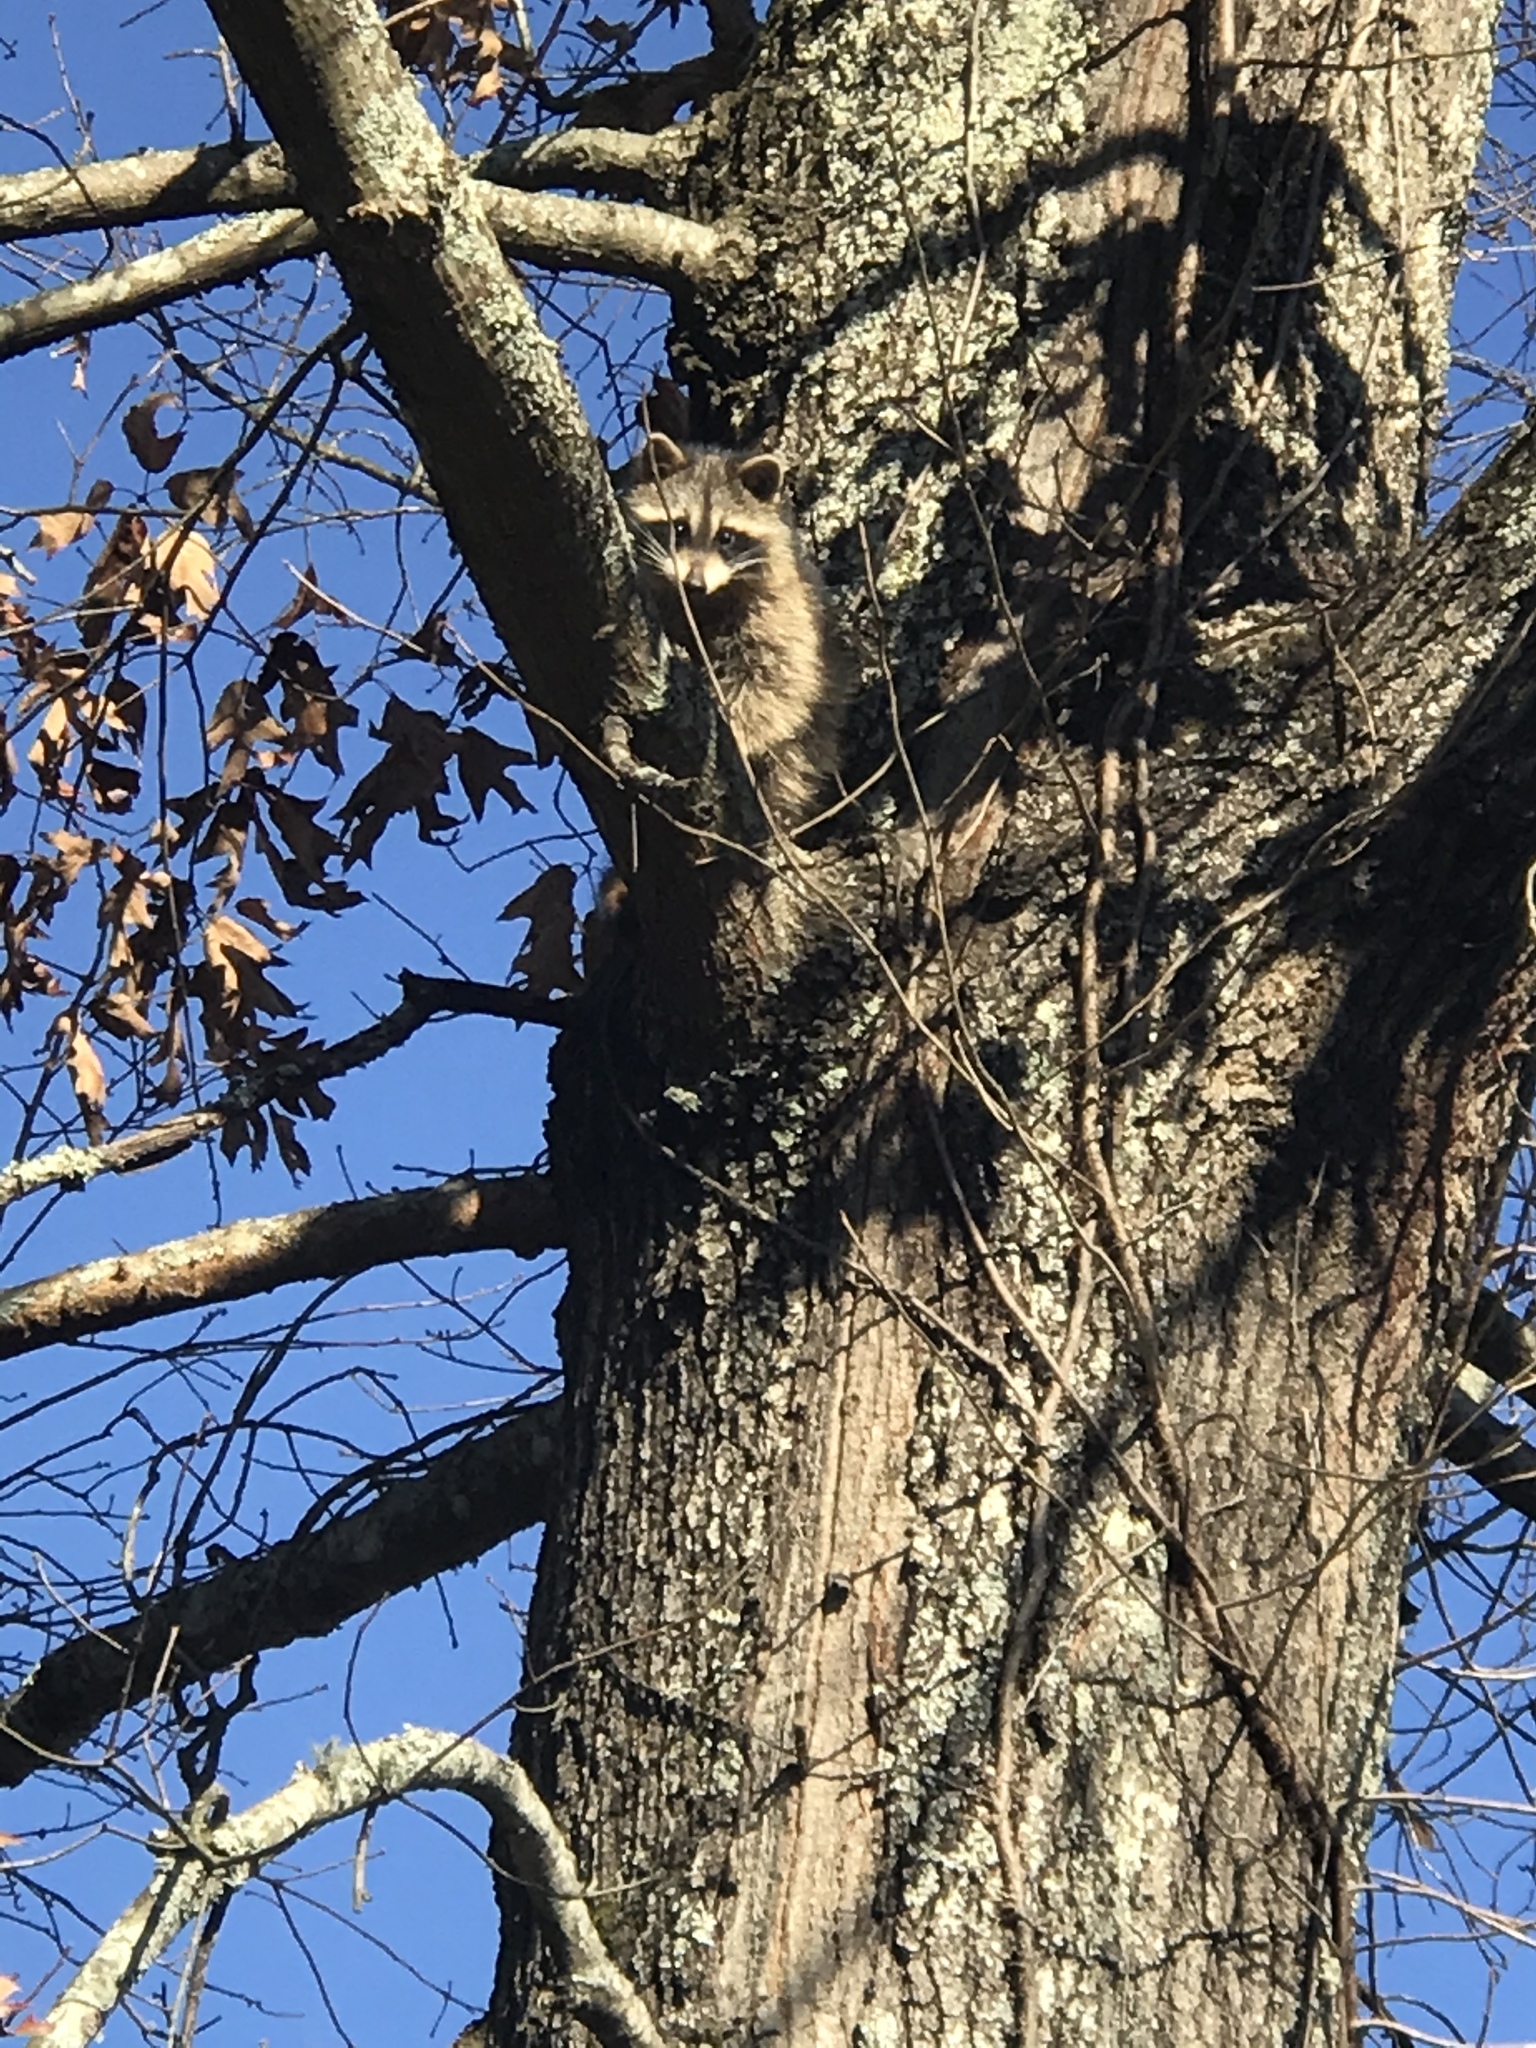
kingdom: Animalia
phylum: Chordata
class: Mammalia
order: Carnivora
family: Procyonidae
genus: Procyon
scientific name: Procyon lotor
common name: Raccoon
